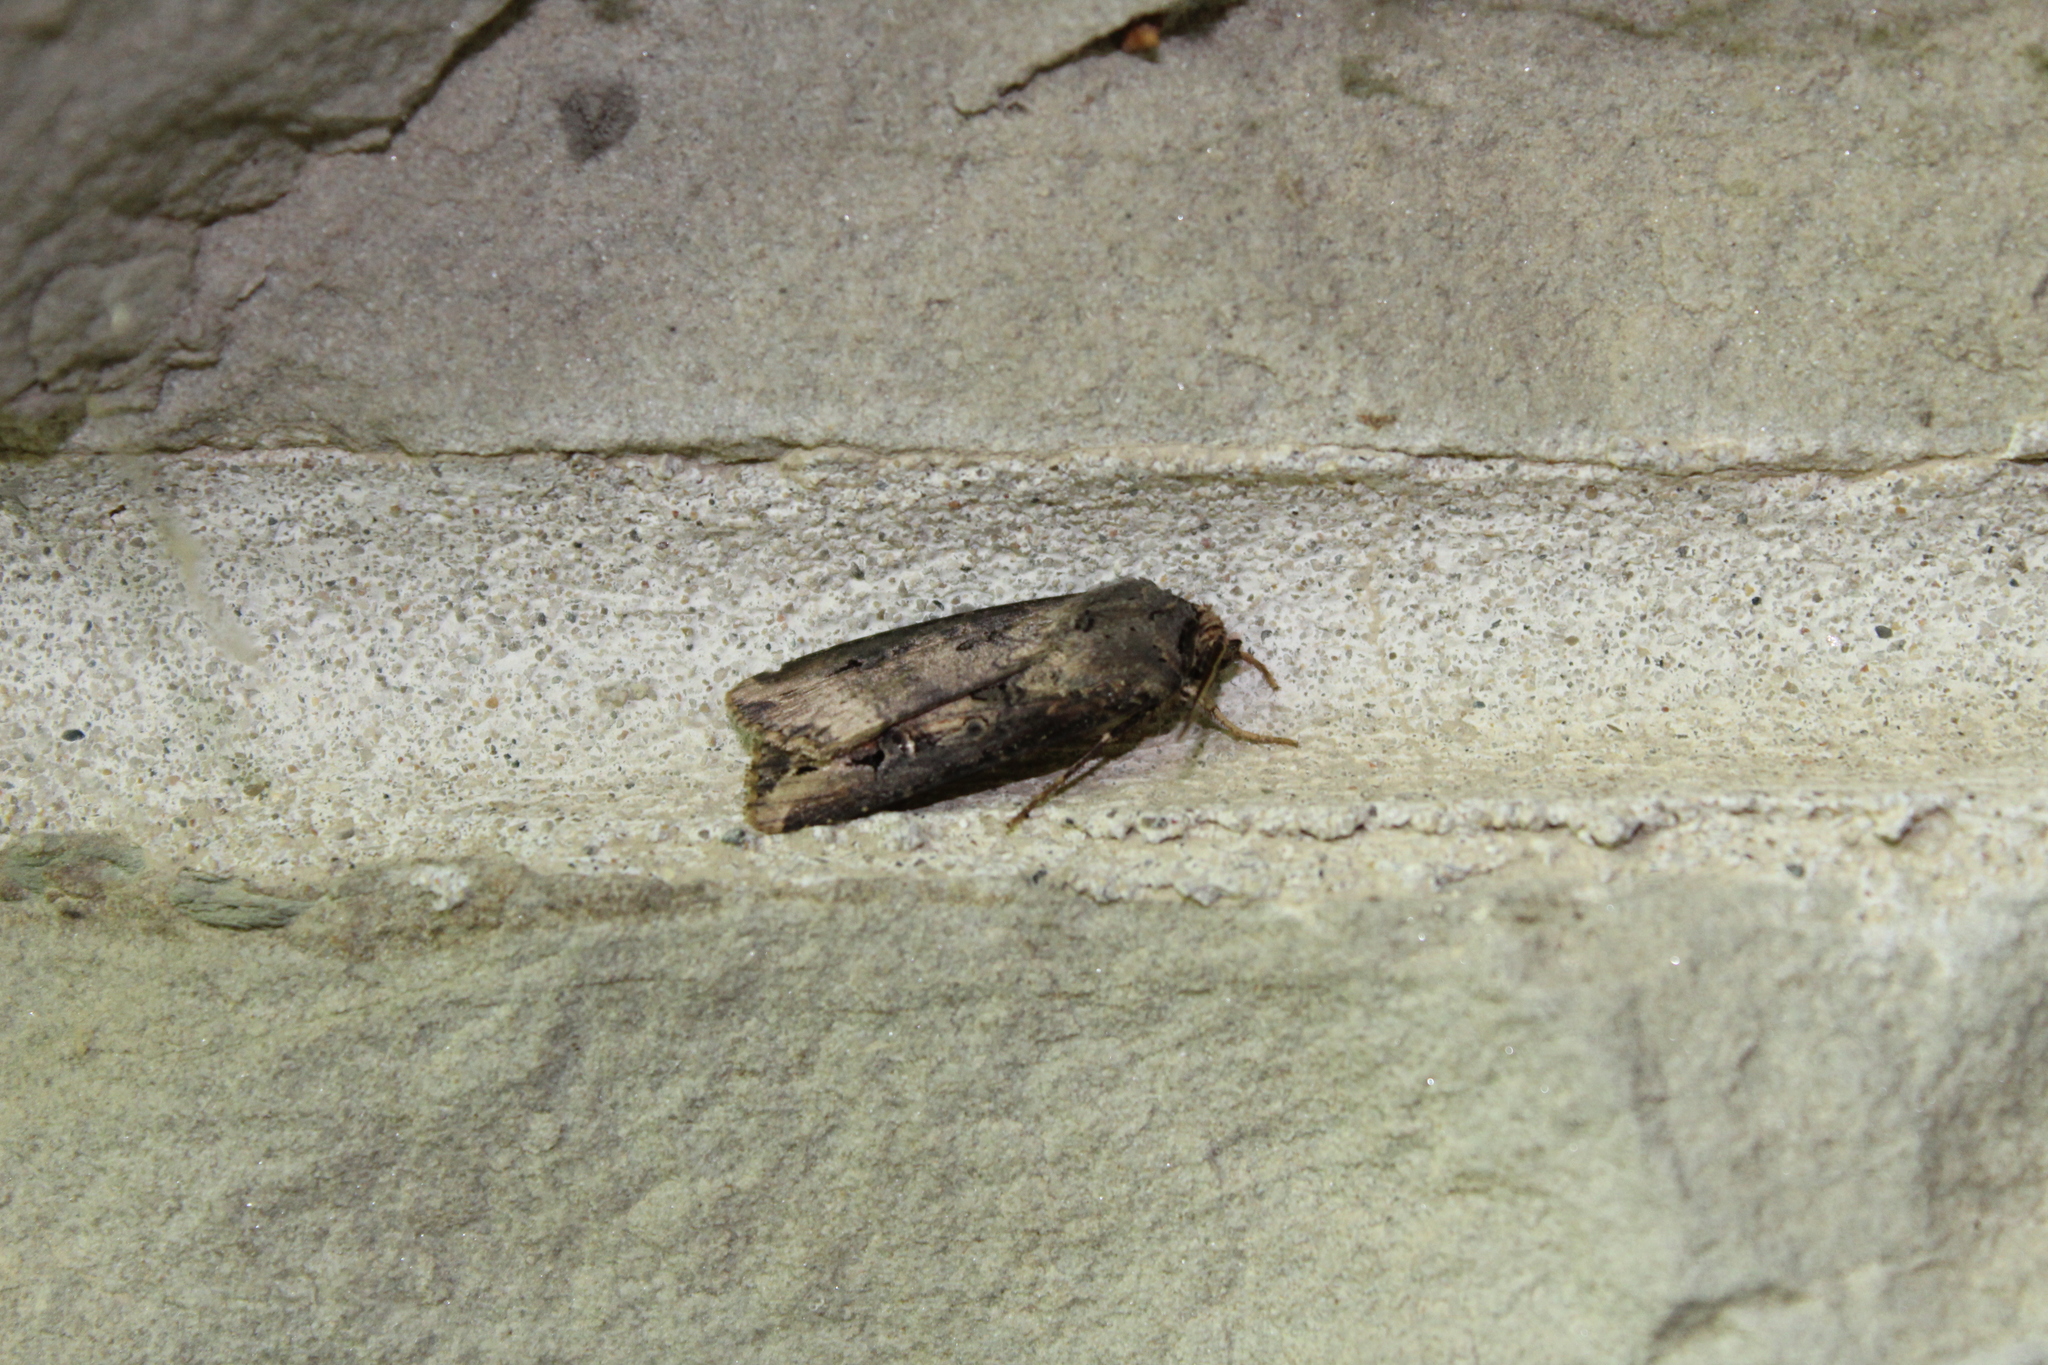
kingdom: Animalia
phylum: Arthropoda
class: Insecta
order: Lepidoptera
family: Noctuidae
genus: Agrotis
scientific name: Agrotis ipsilon
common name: Dark sword-grass
